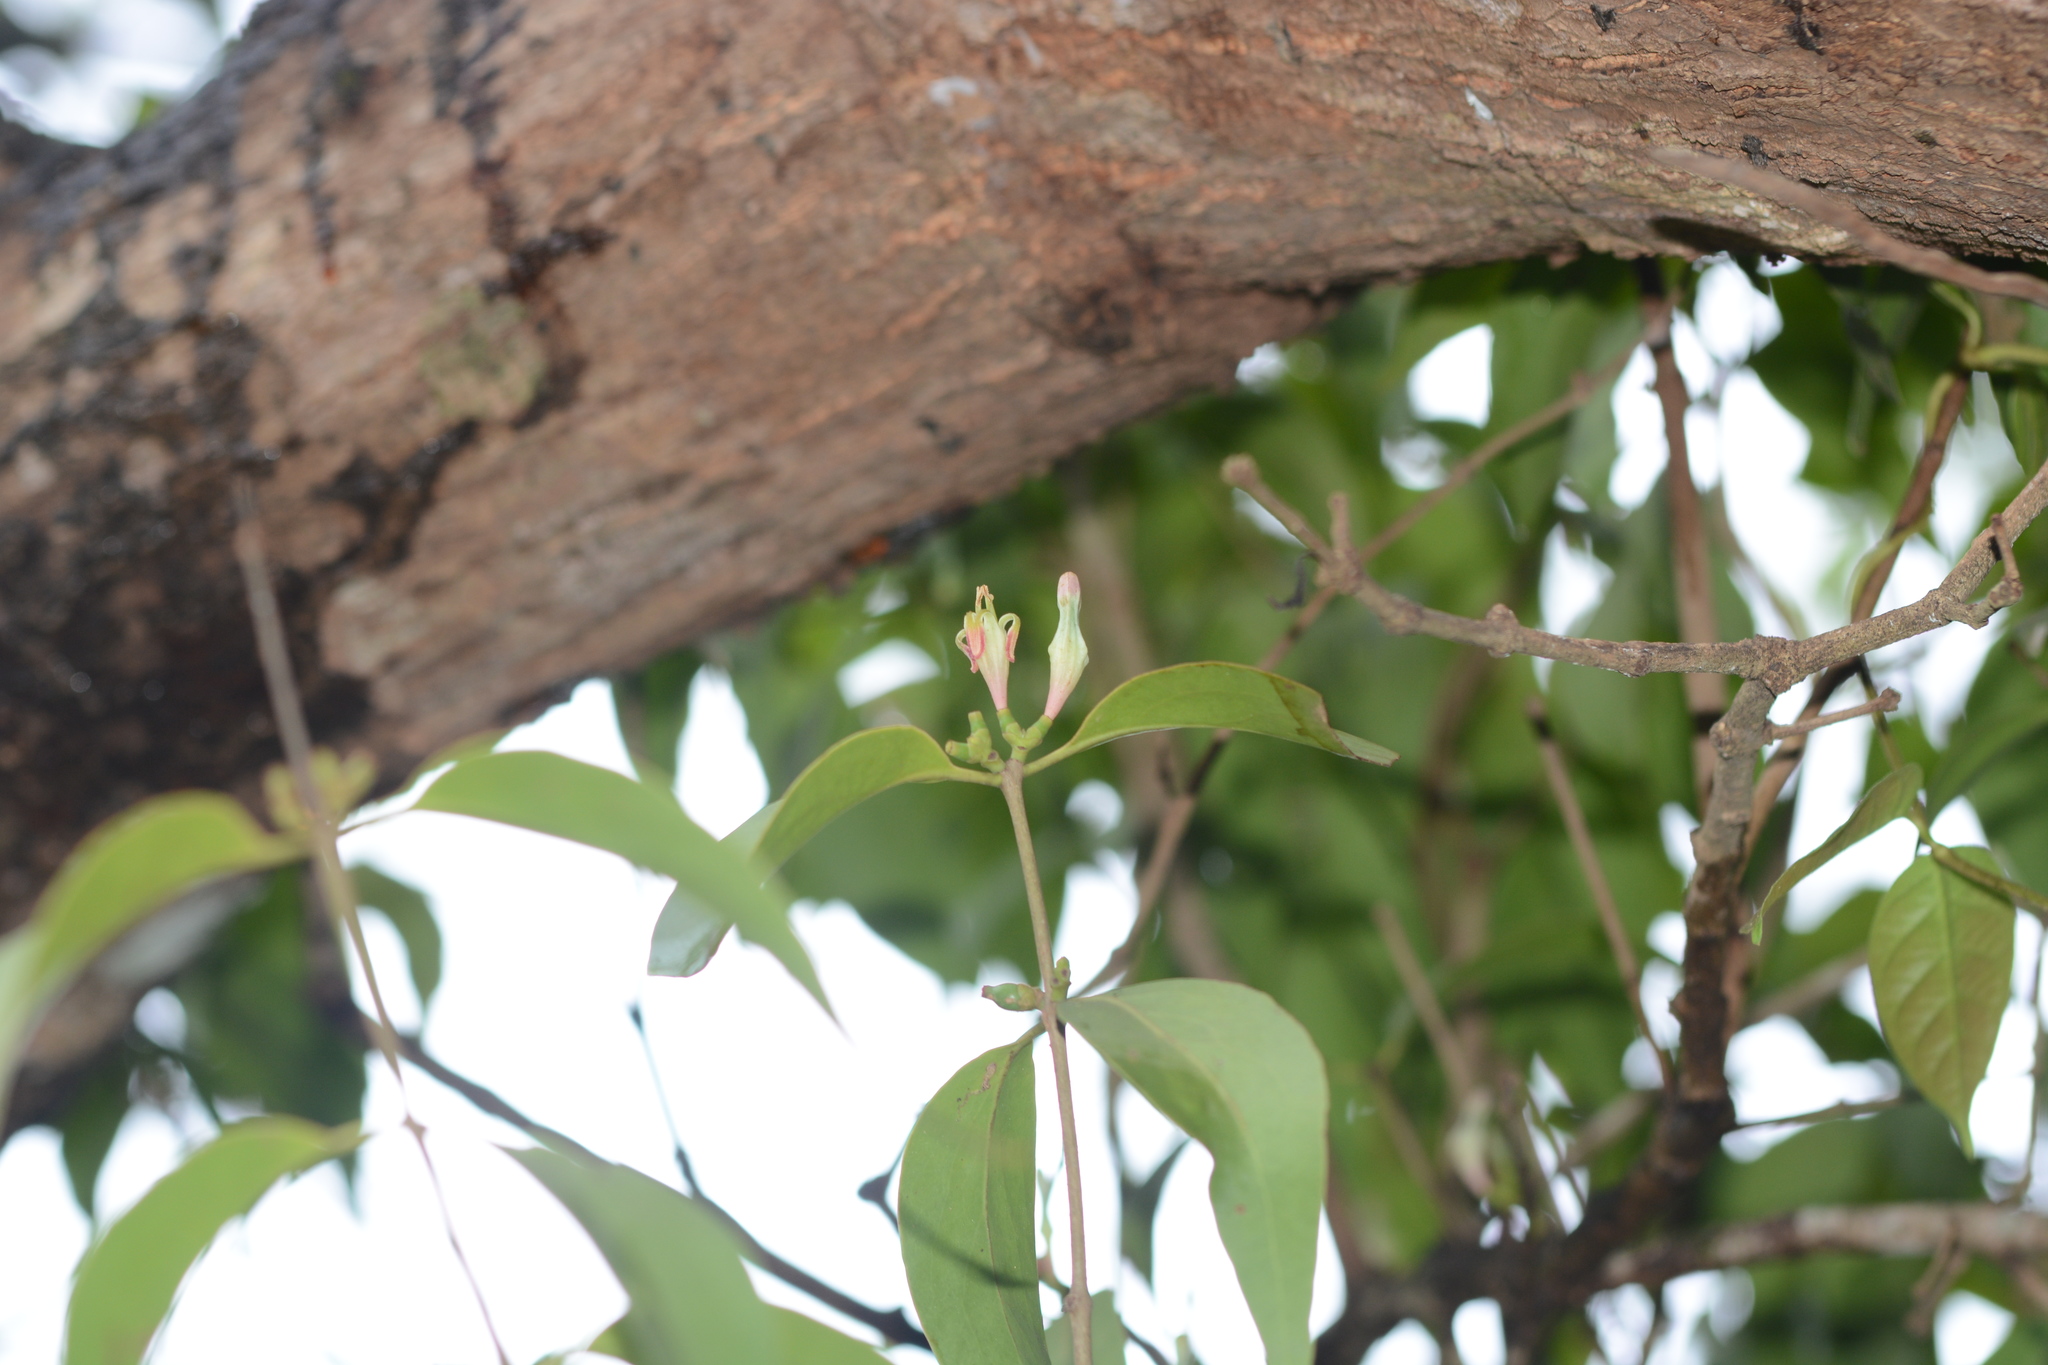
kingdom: Plantae
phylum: Tracheophyta
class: Magnoliopsida
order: Santalales
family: Loranthaceae
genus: Macrosolen
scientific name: Macrosolen capitellatus
